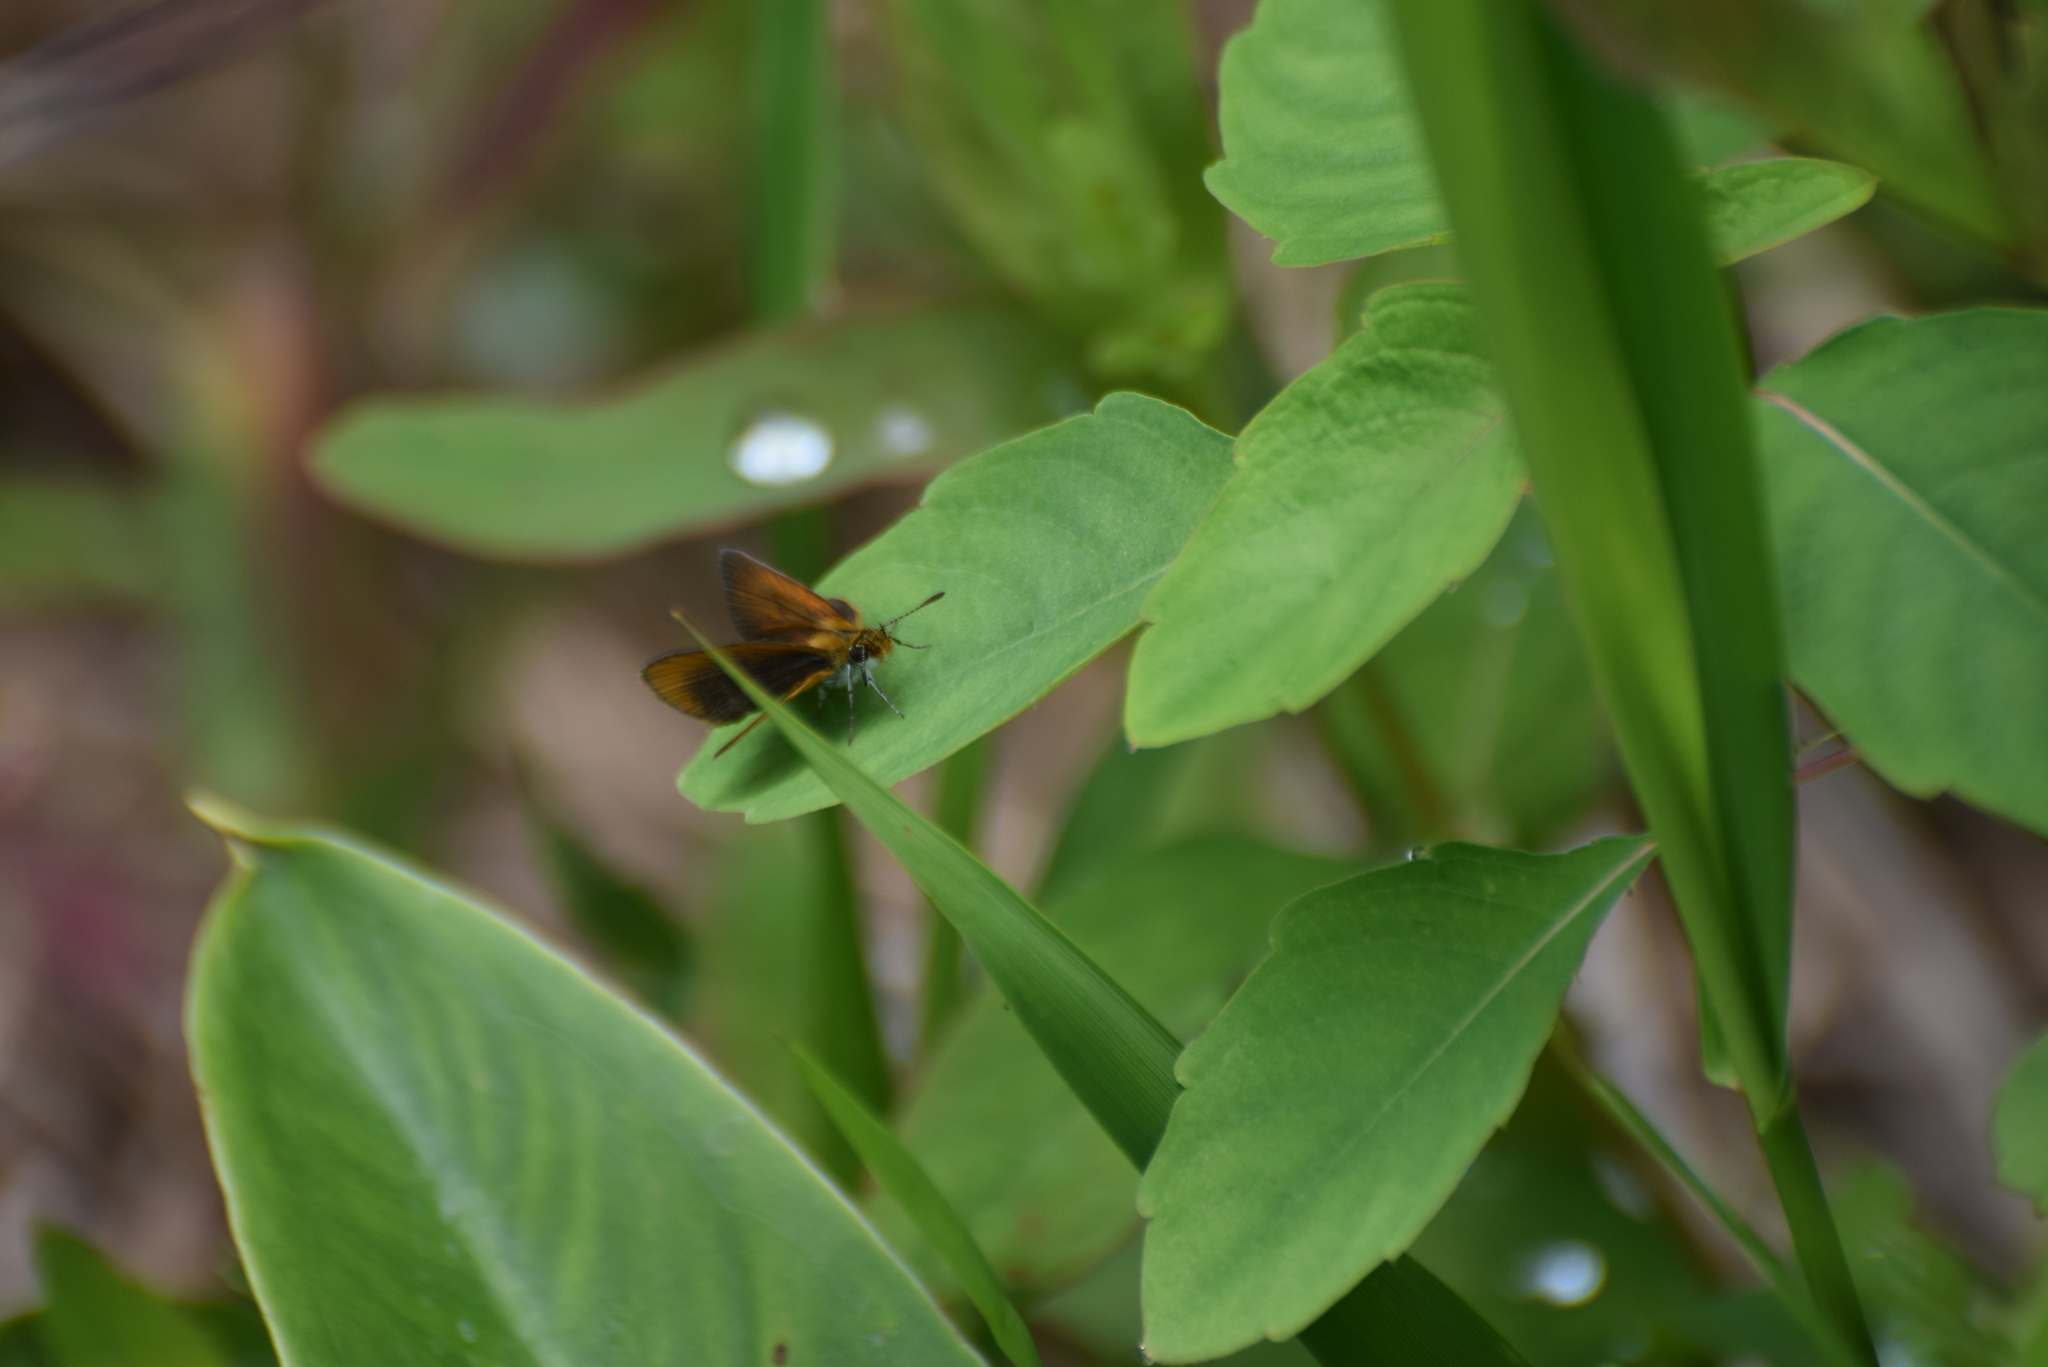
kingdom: Animalia
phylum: Arthropoda
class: Insecta
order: Lepidoptera
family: Hesperiidae
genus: Ancyloxypha
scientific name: Ancyloxypha numitor
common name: Least skipper
